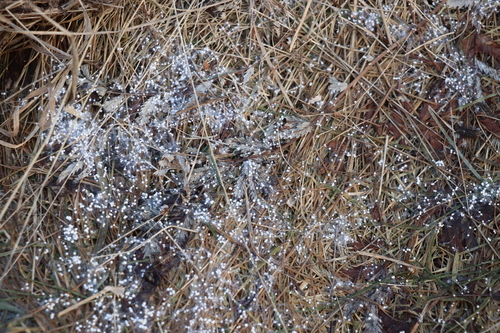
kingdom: Fungi
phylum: Basidiomycota
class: Agaricomycetes
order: Agaricales
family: Typhulaceae
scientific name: Typhulaceae
